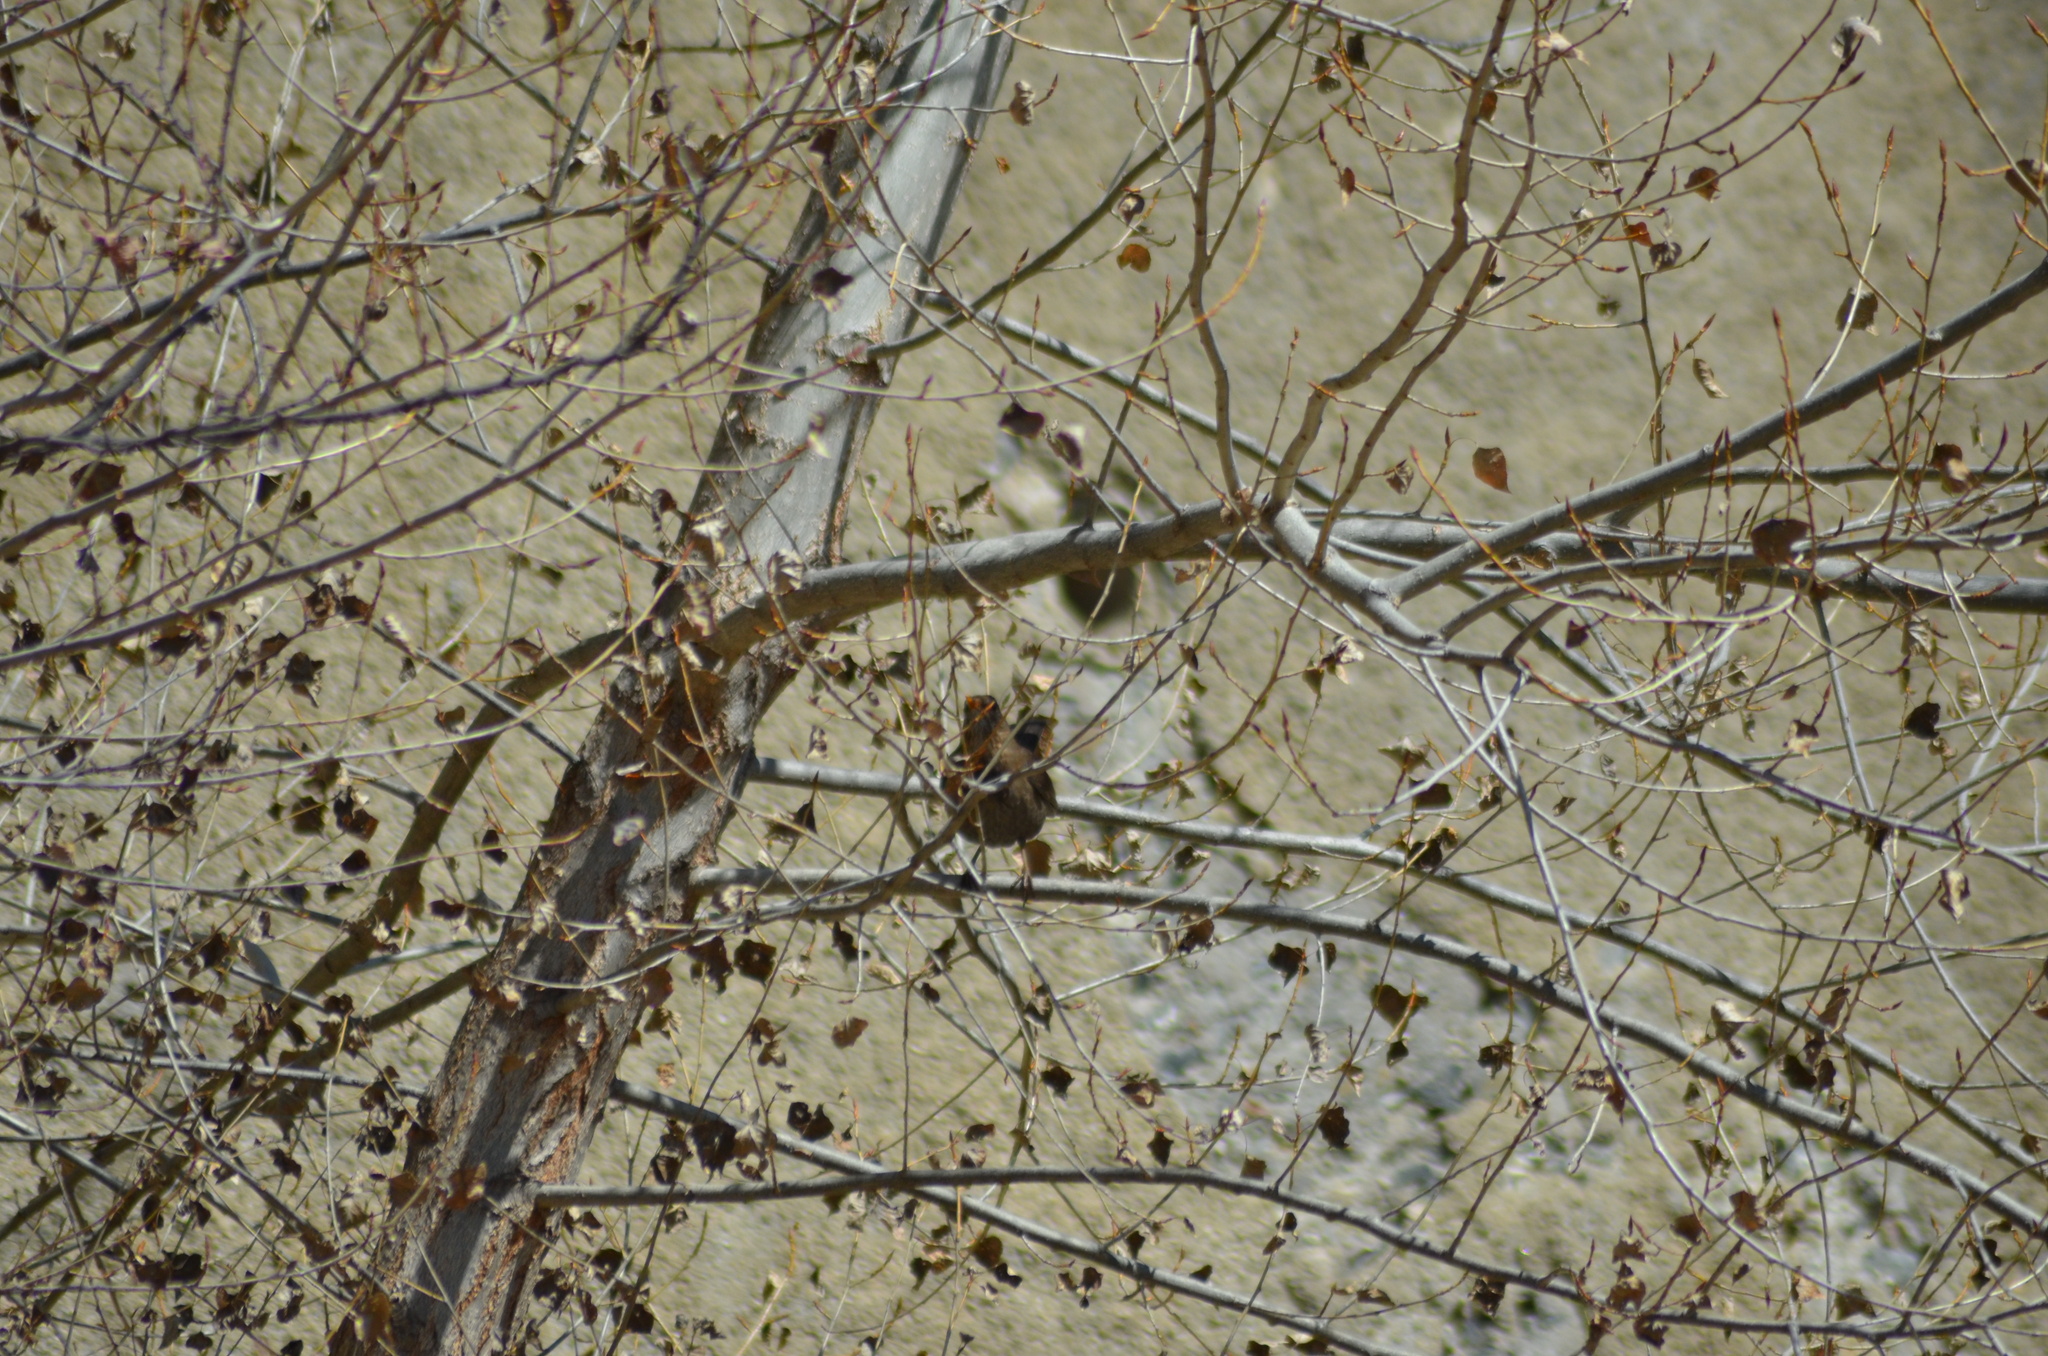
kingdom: Animalia
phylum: Chordata
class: Aves
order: Passeriformes
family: Turdidae
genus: Turdus
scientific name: Turdus merula
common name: Common blackbird
